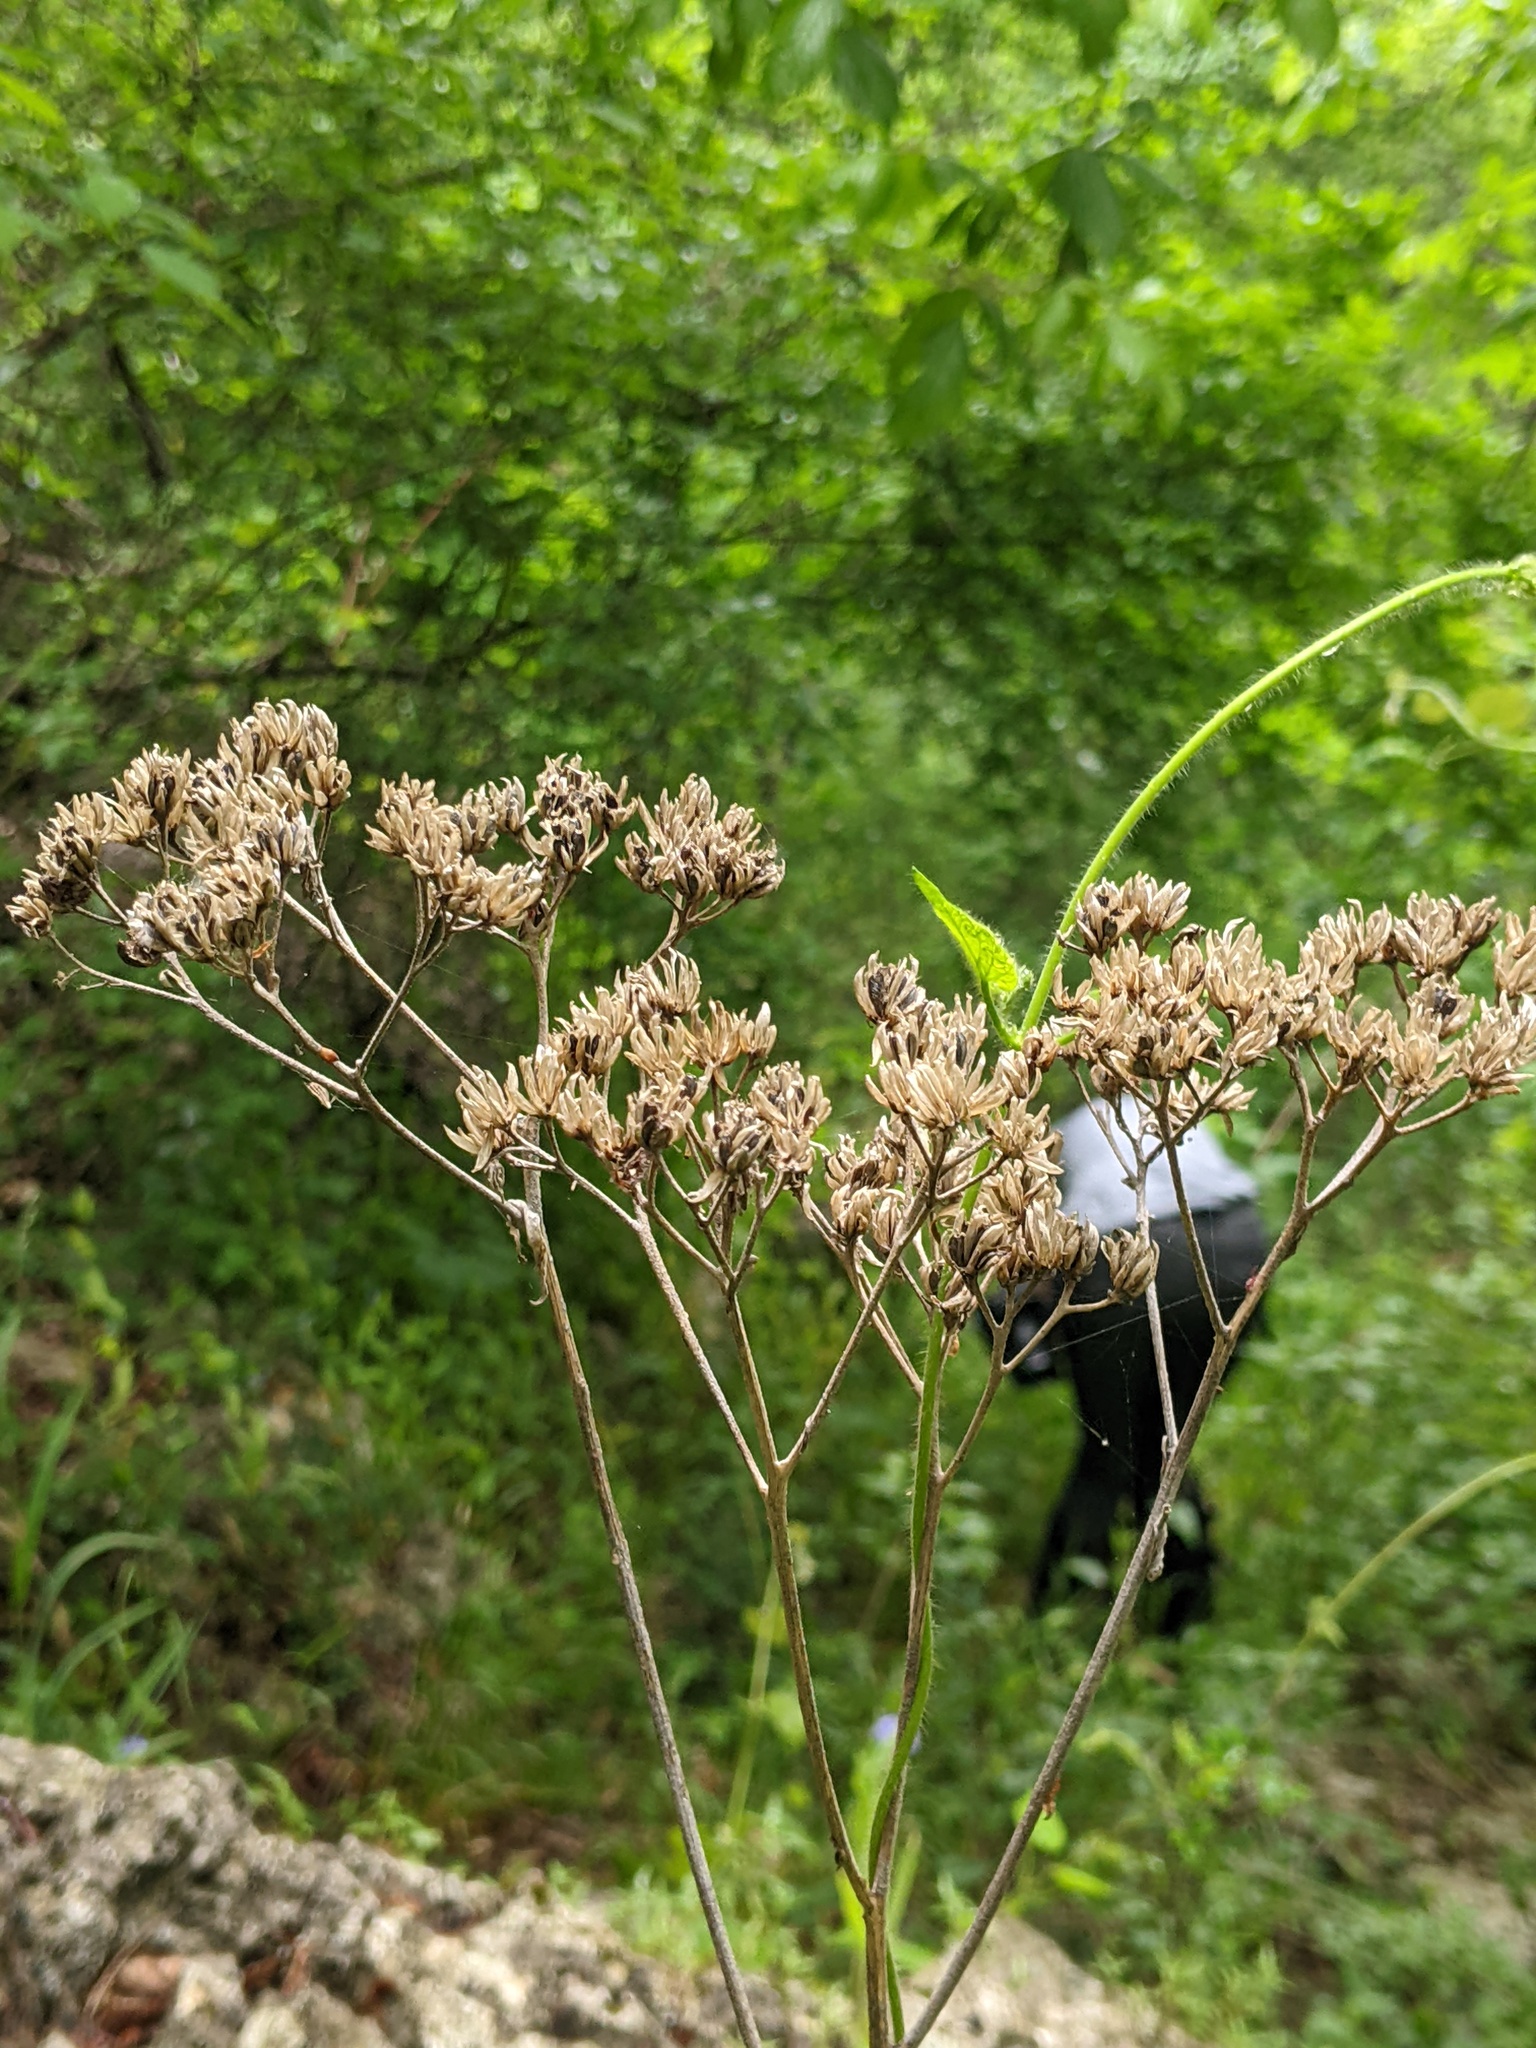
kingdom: Plantae
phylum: Tracheophyta
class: Magnoliopsida
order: Asterales
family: Asteraceae
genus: Verbesina
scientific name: Verbesina virginica
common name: Frostweed
